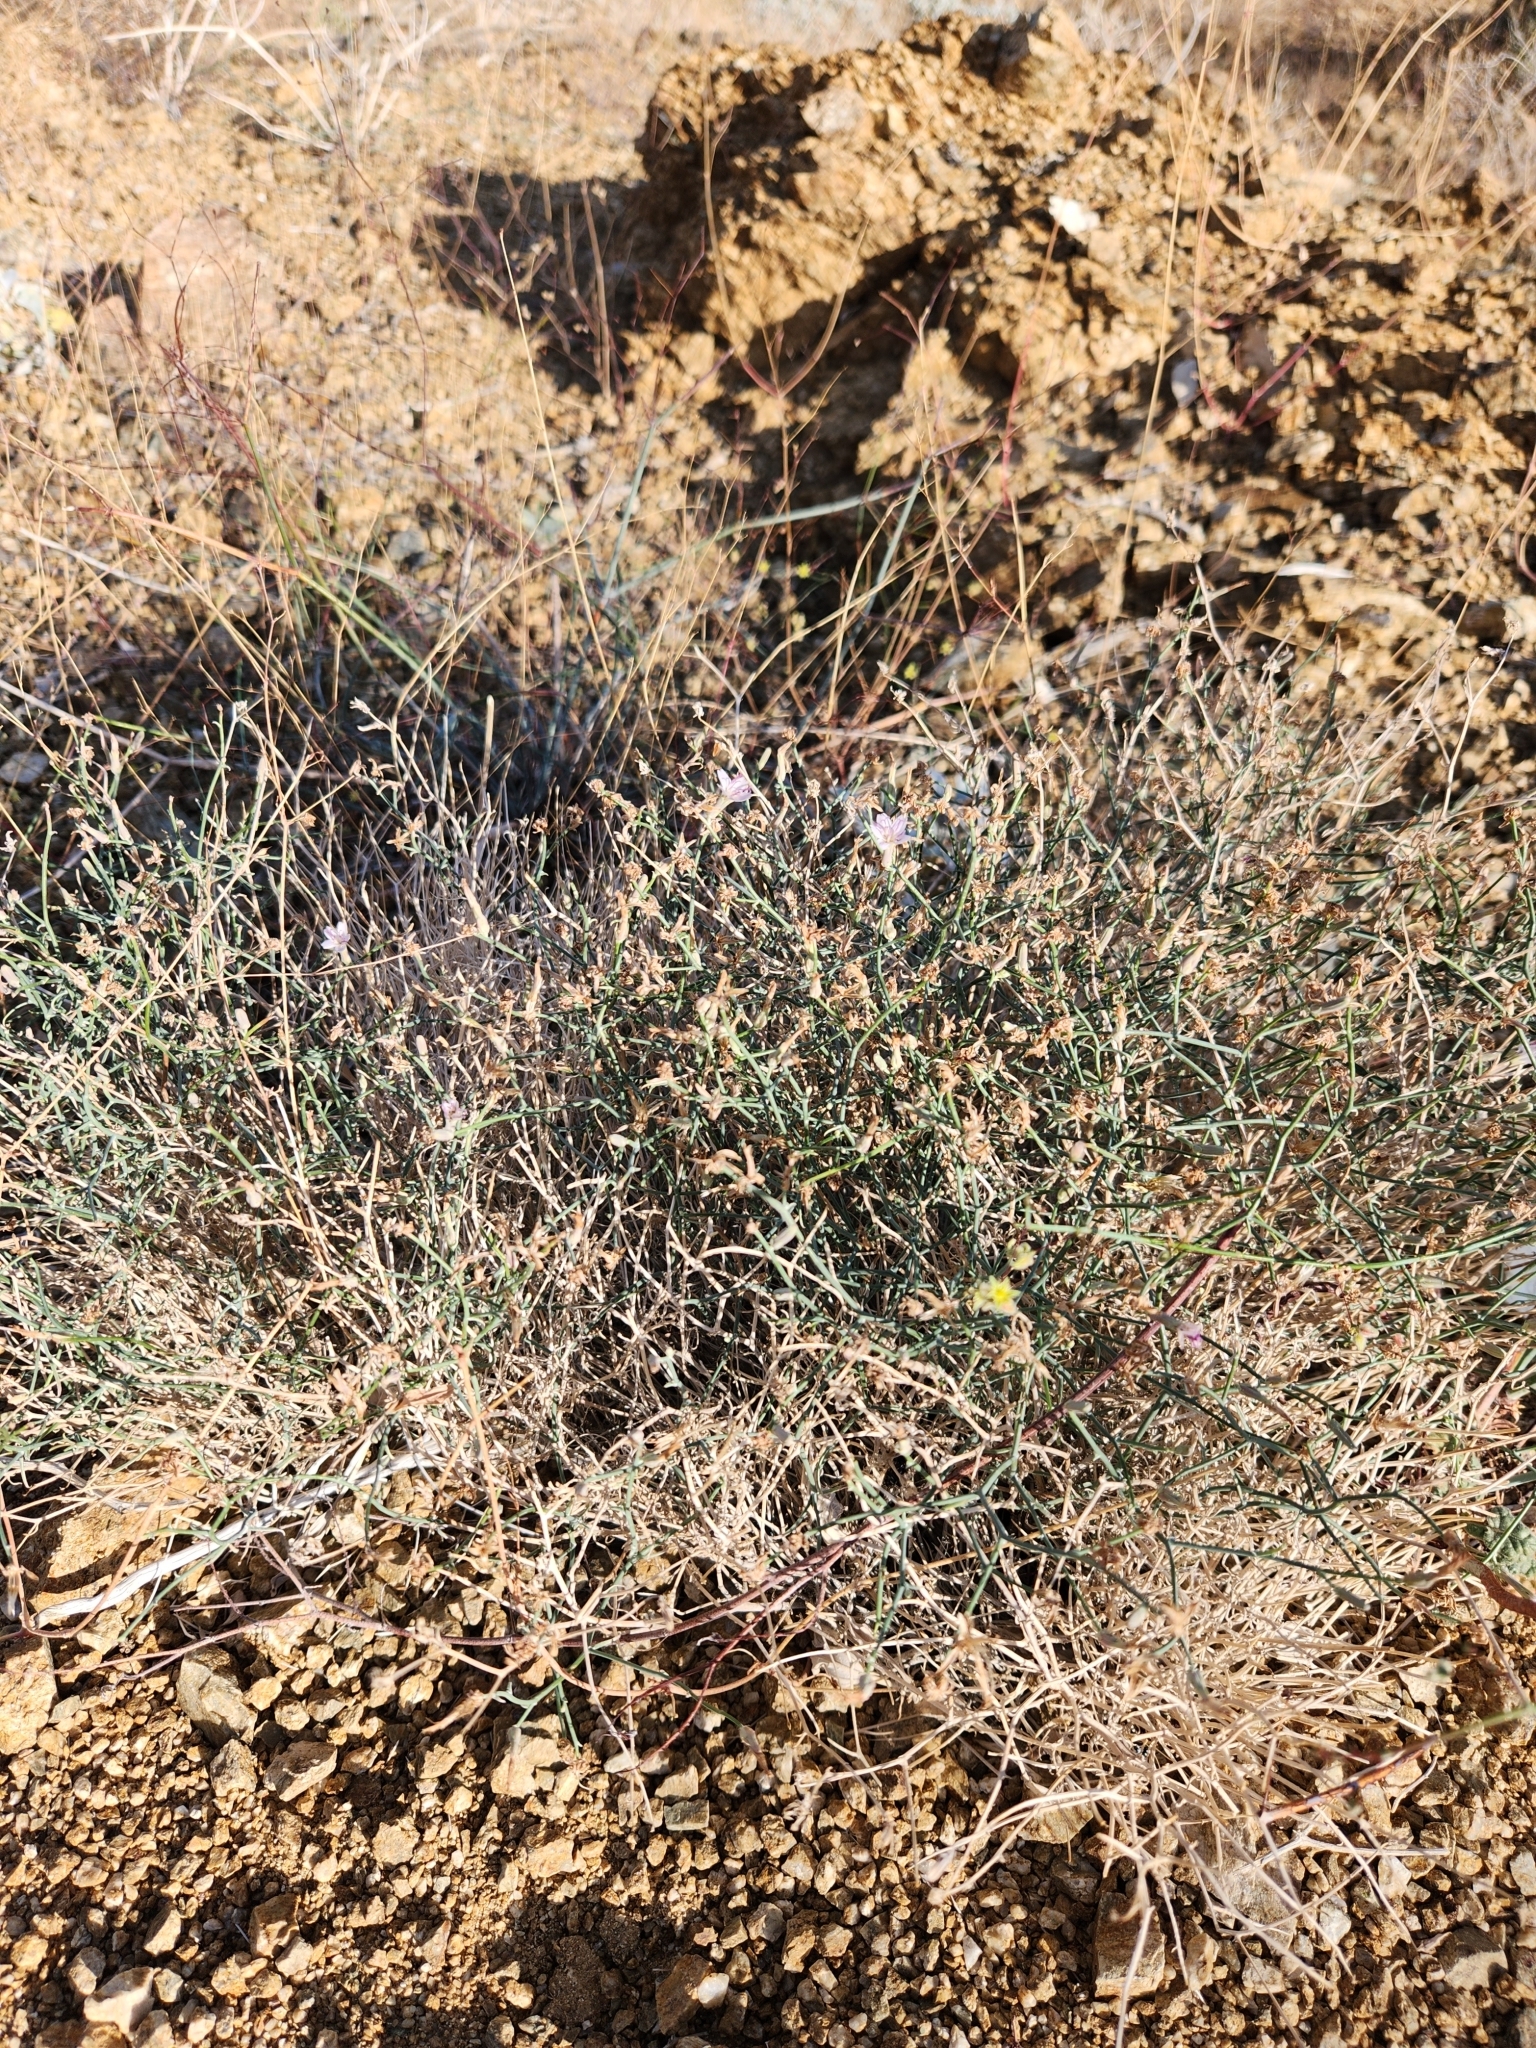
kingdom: Plantae
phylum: Tracheophyta
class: Magnoliopsida
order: Asterales
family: Asteraceae
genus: Stephanomeria
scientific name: Stephanomeria pauciflora
